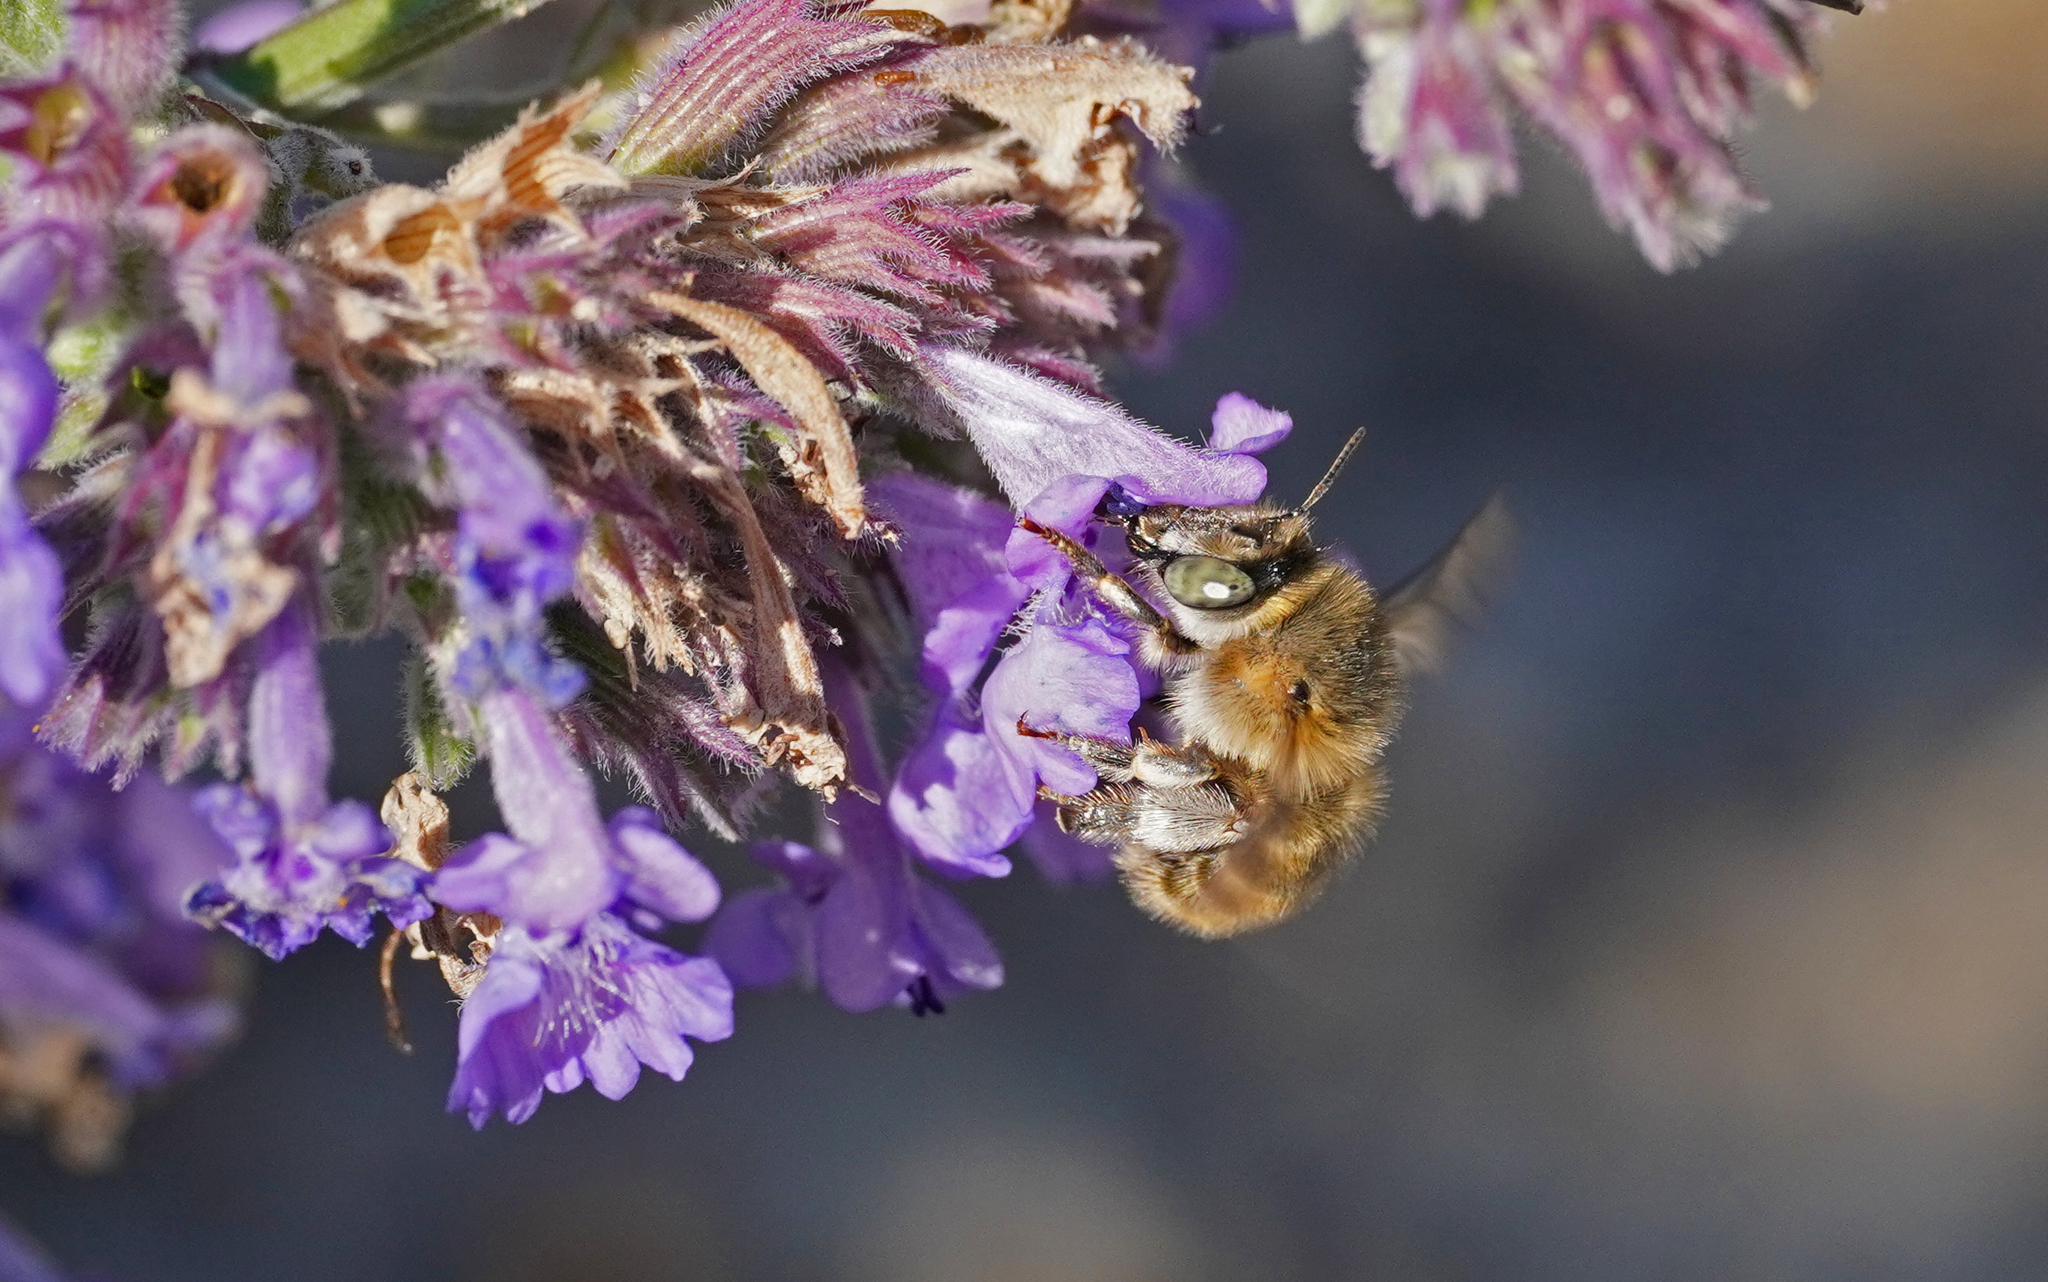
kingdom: Animalia
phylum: Arthropoda
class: Insecta
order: Hymenoptera
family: Apidae
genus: Anthophora
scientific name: Anthophora quadrimaculata
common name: Four-banded flower bee
